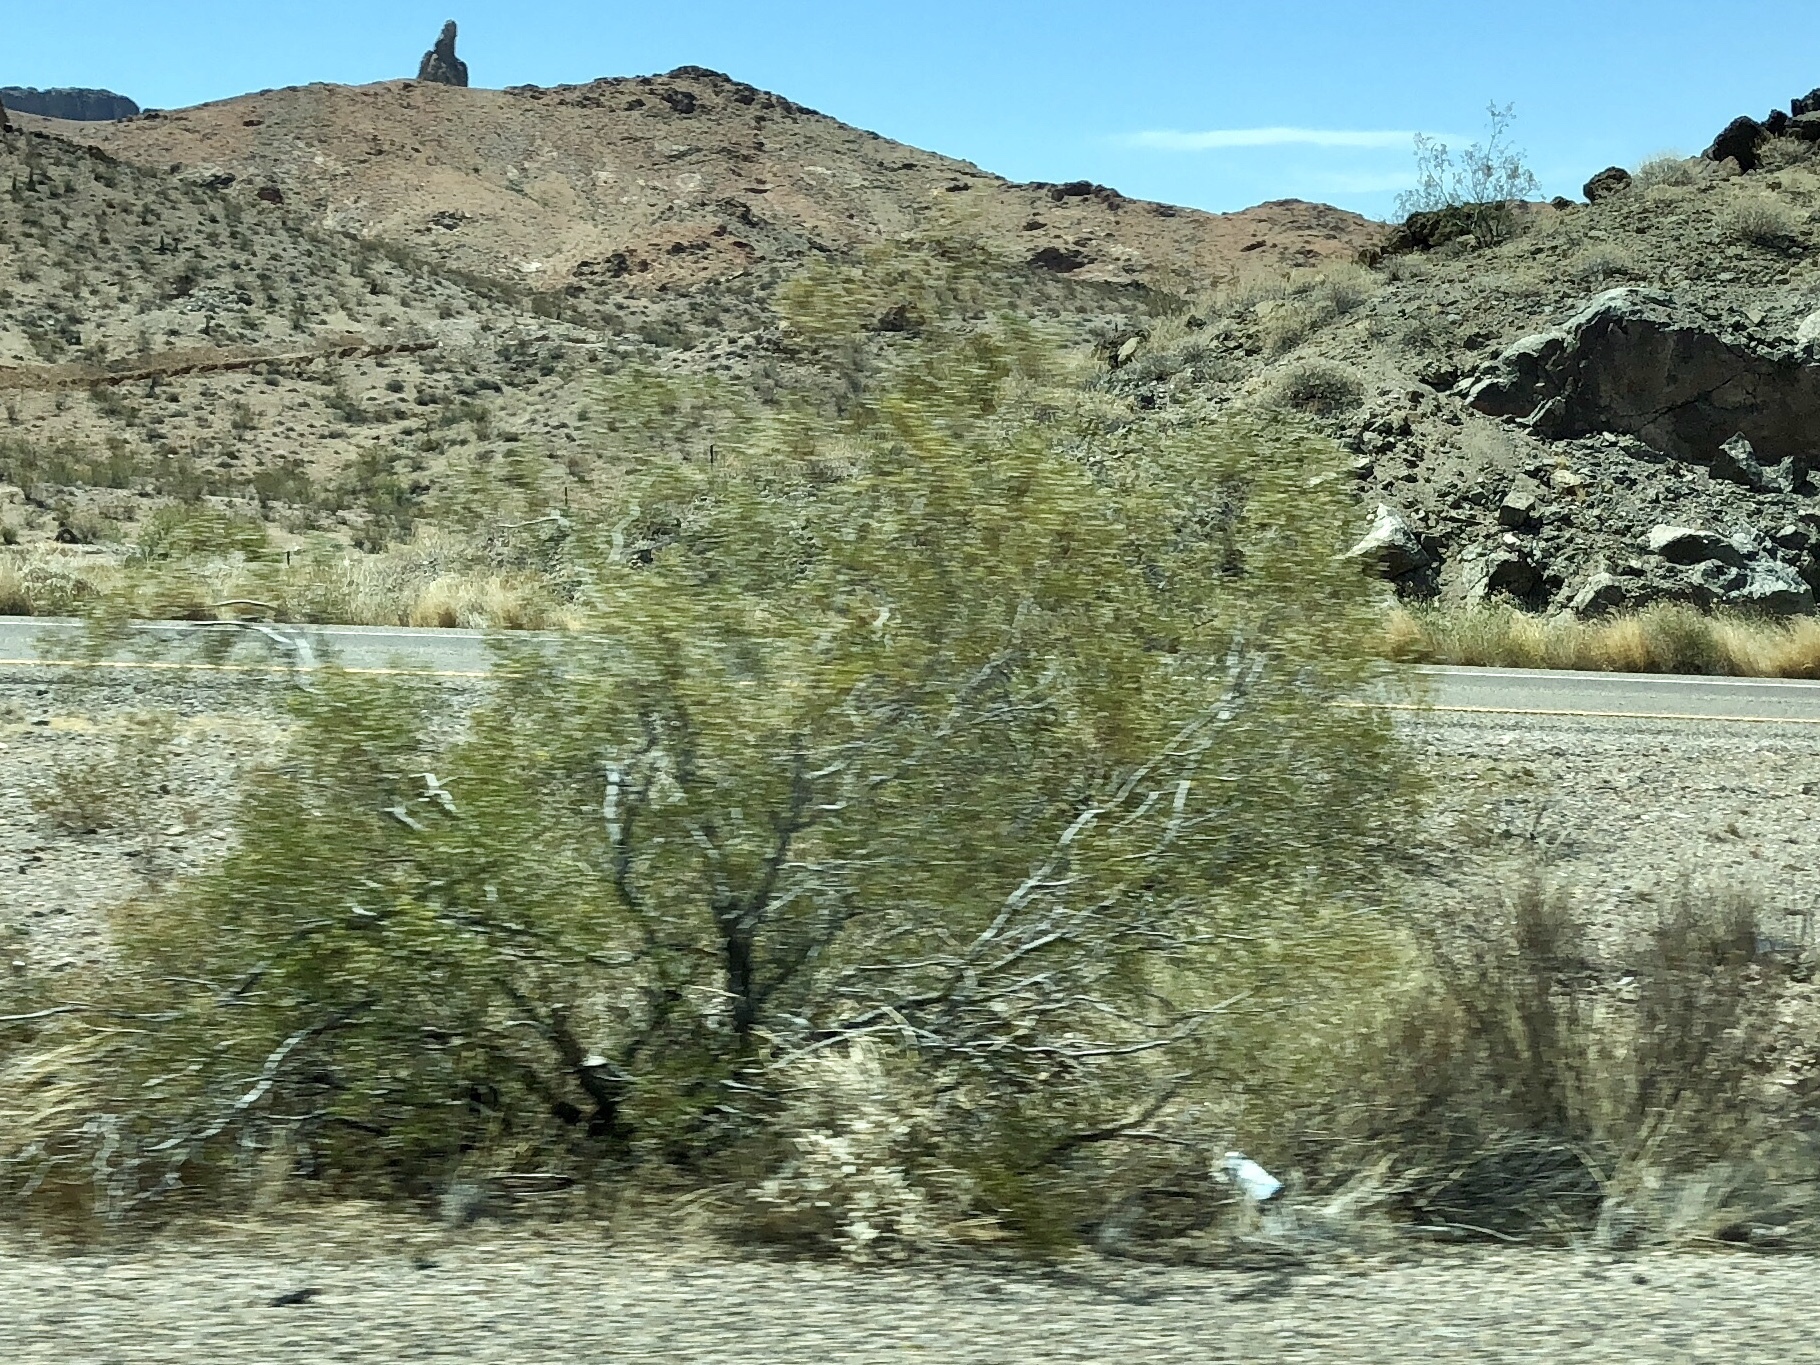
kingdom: Plantae
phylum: Tracheophyta
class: Magnoliopsida
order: Zygophyllales
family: Zygophyllaceae
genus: Larrea
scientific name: Larrea tridentata
